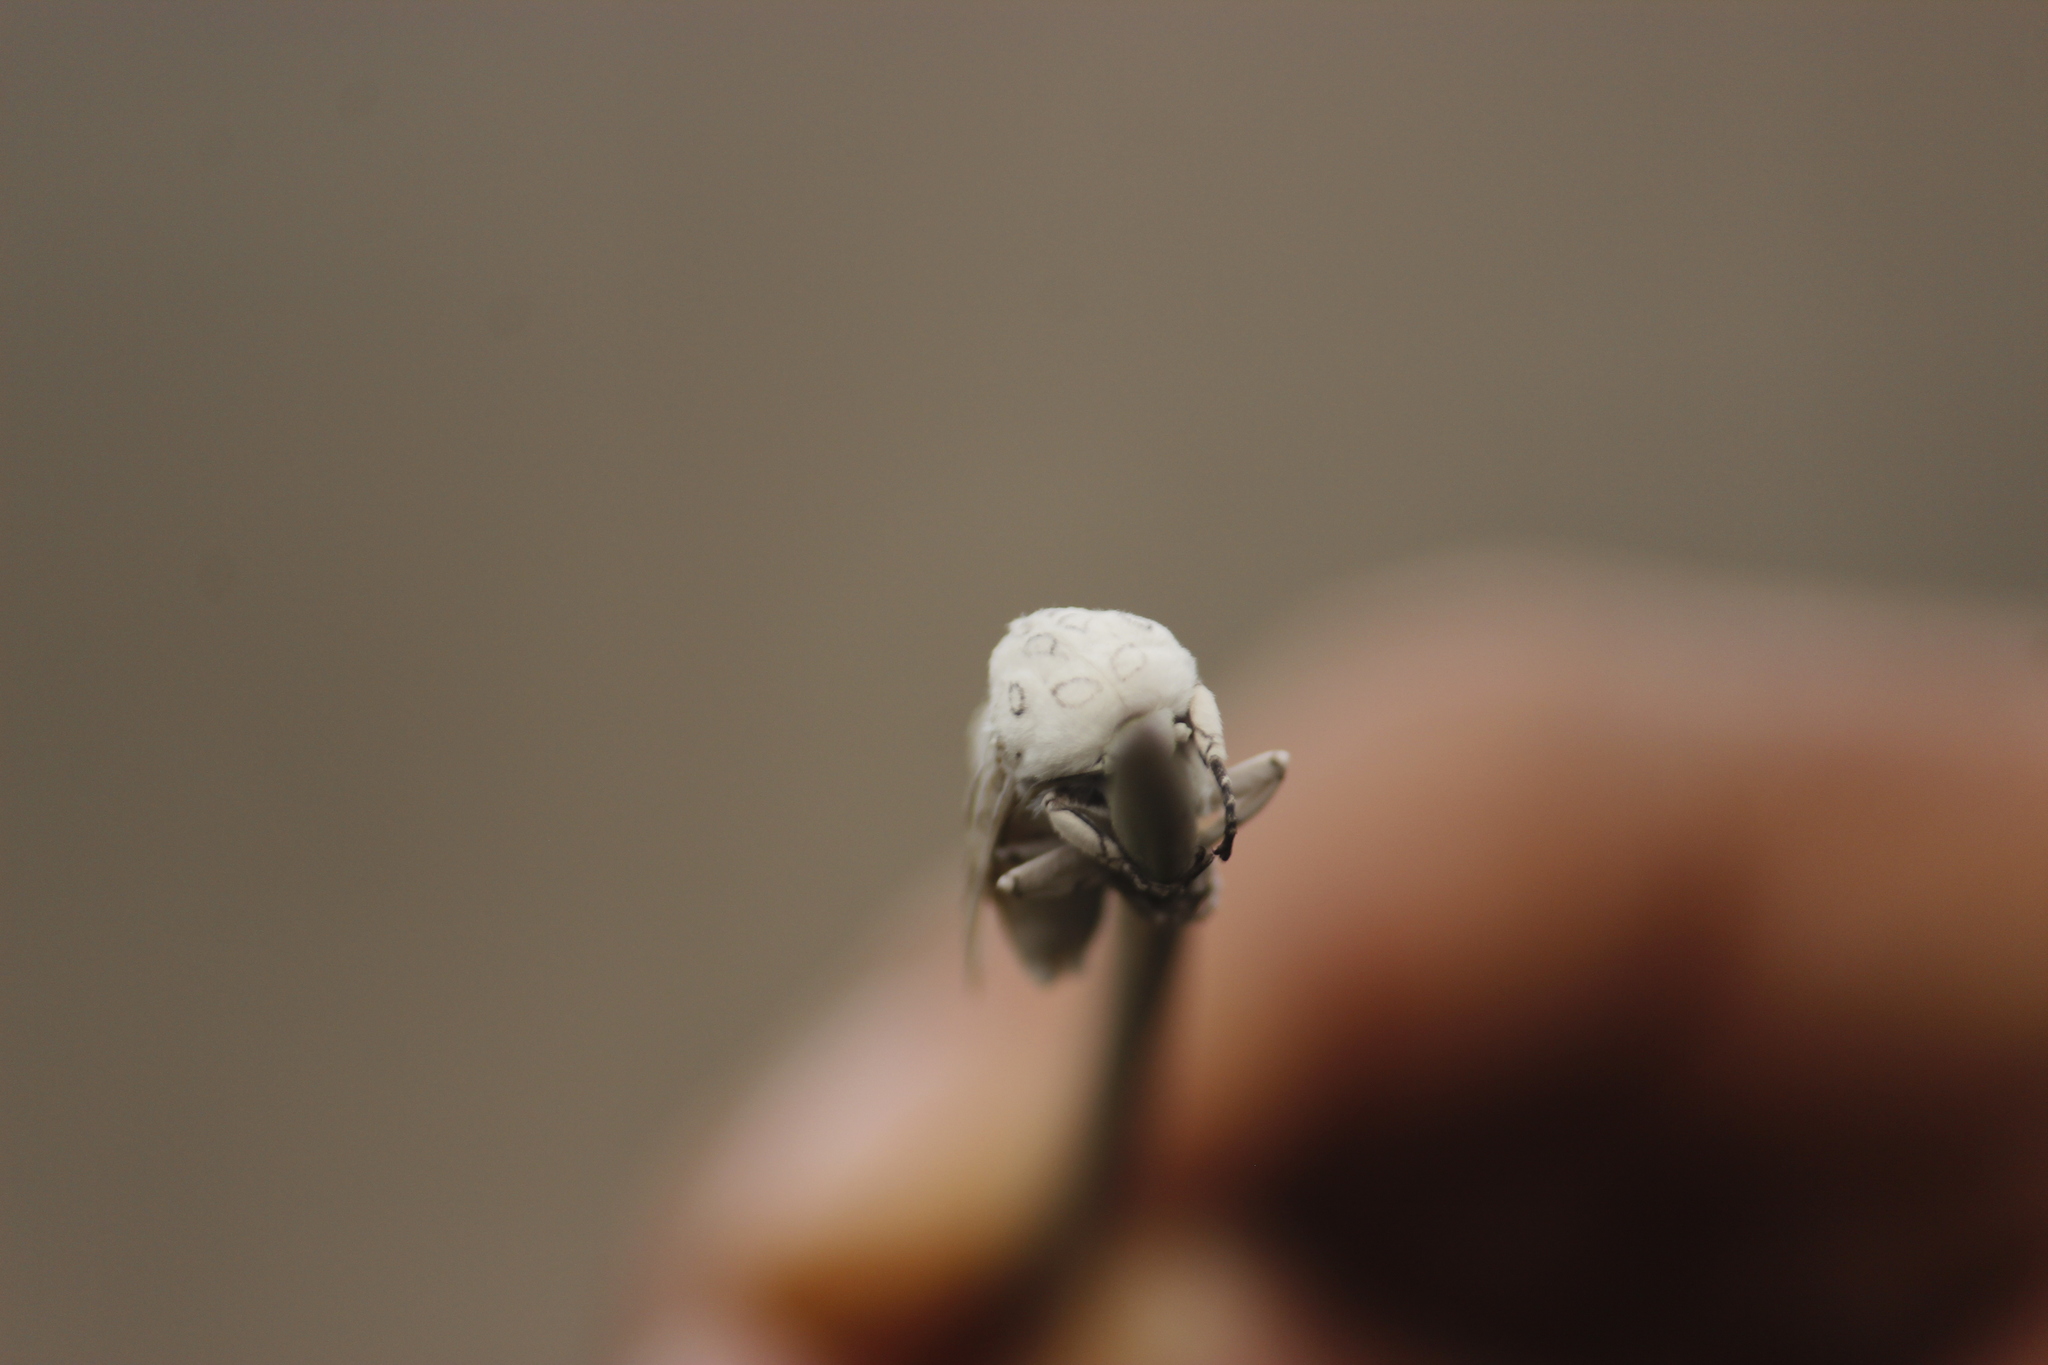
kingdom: Animalia
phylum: Arthropoda
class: Insecta
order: Lepidoptera
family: Erebidae
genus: Hypercompe
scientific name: Hypercompe muzina
